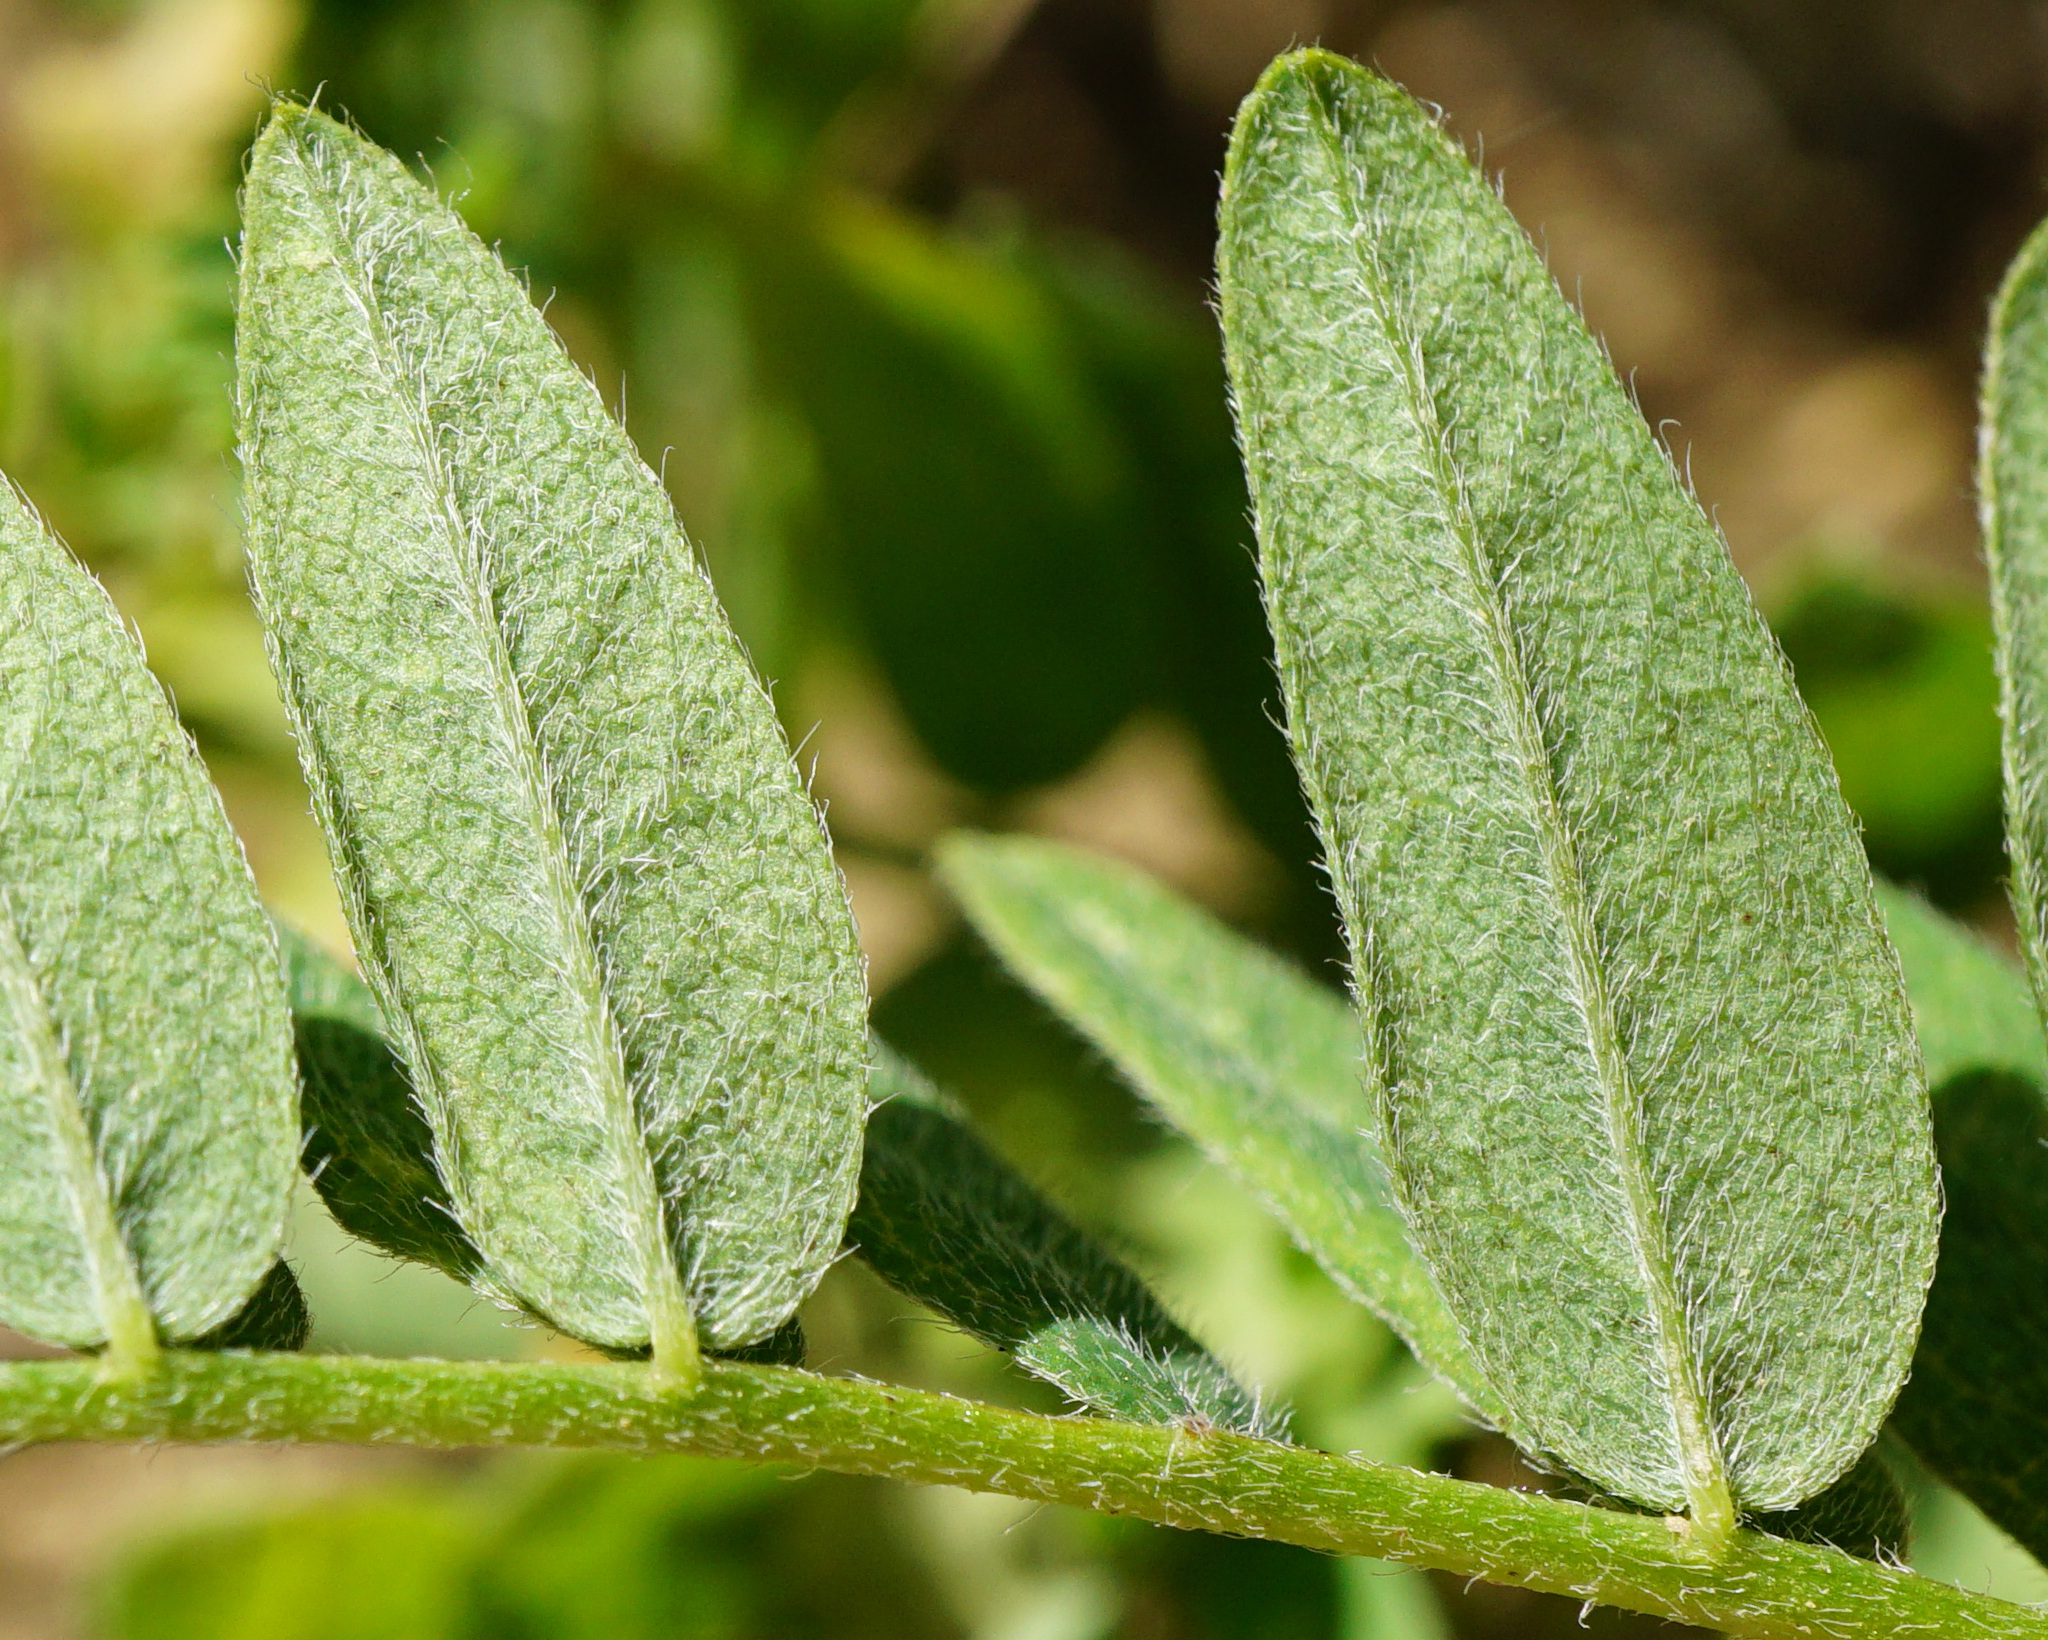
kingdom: Plantae
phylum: Tracheophyta
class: Magnoliopsida
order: Fabales
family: Fabaceae
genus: Astragalus
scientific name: Astragalus cicer
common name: Chick-pea milk-vetch
